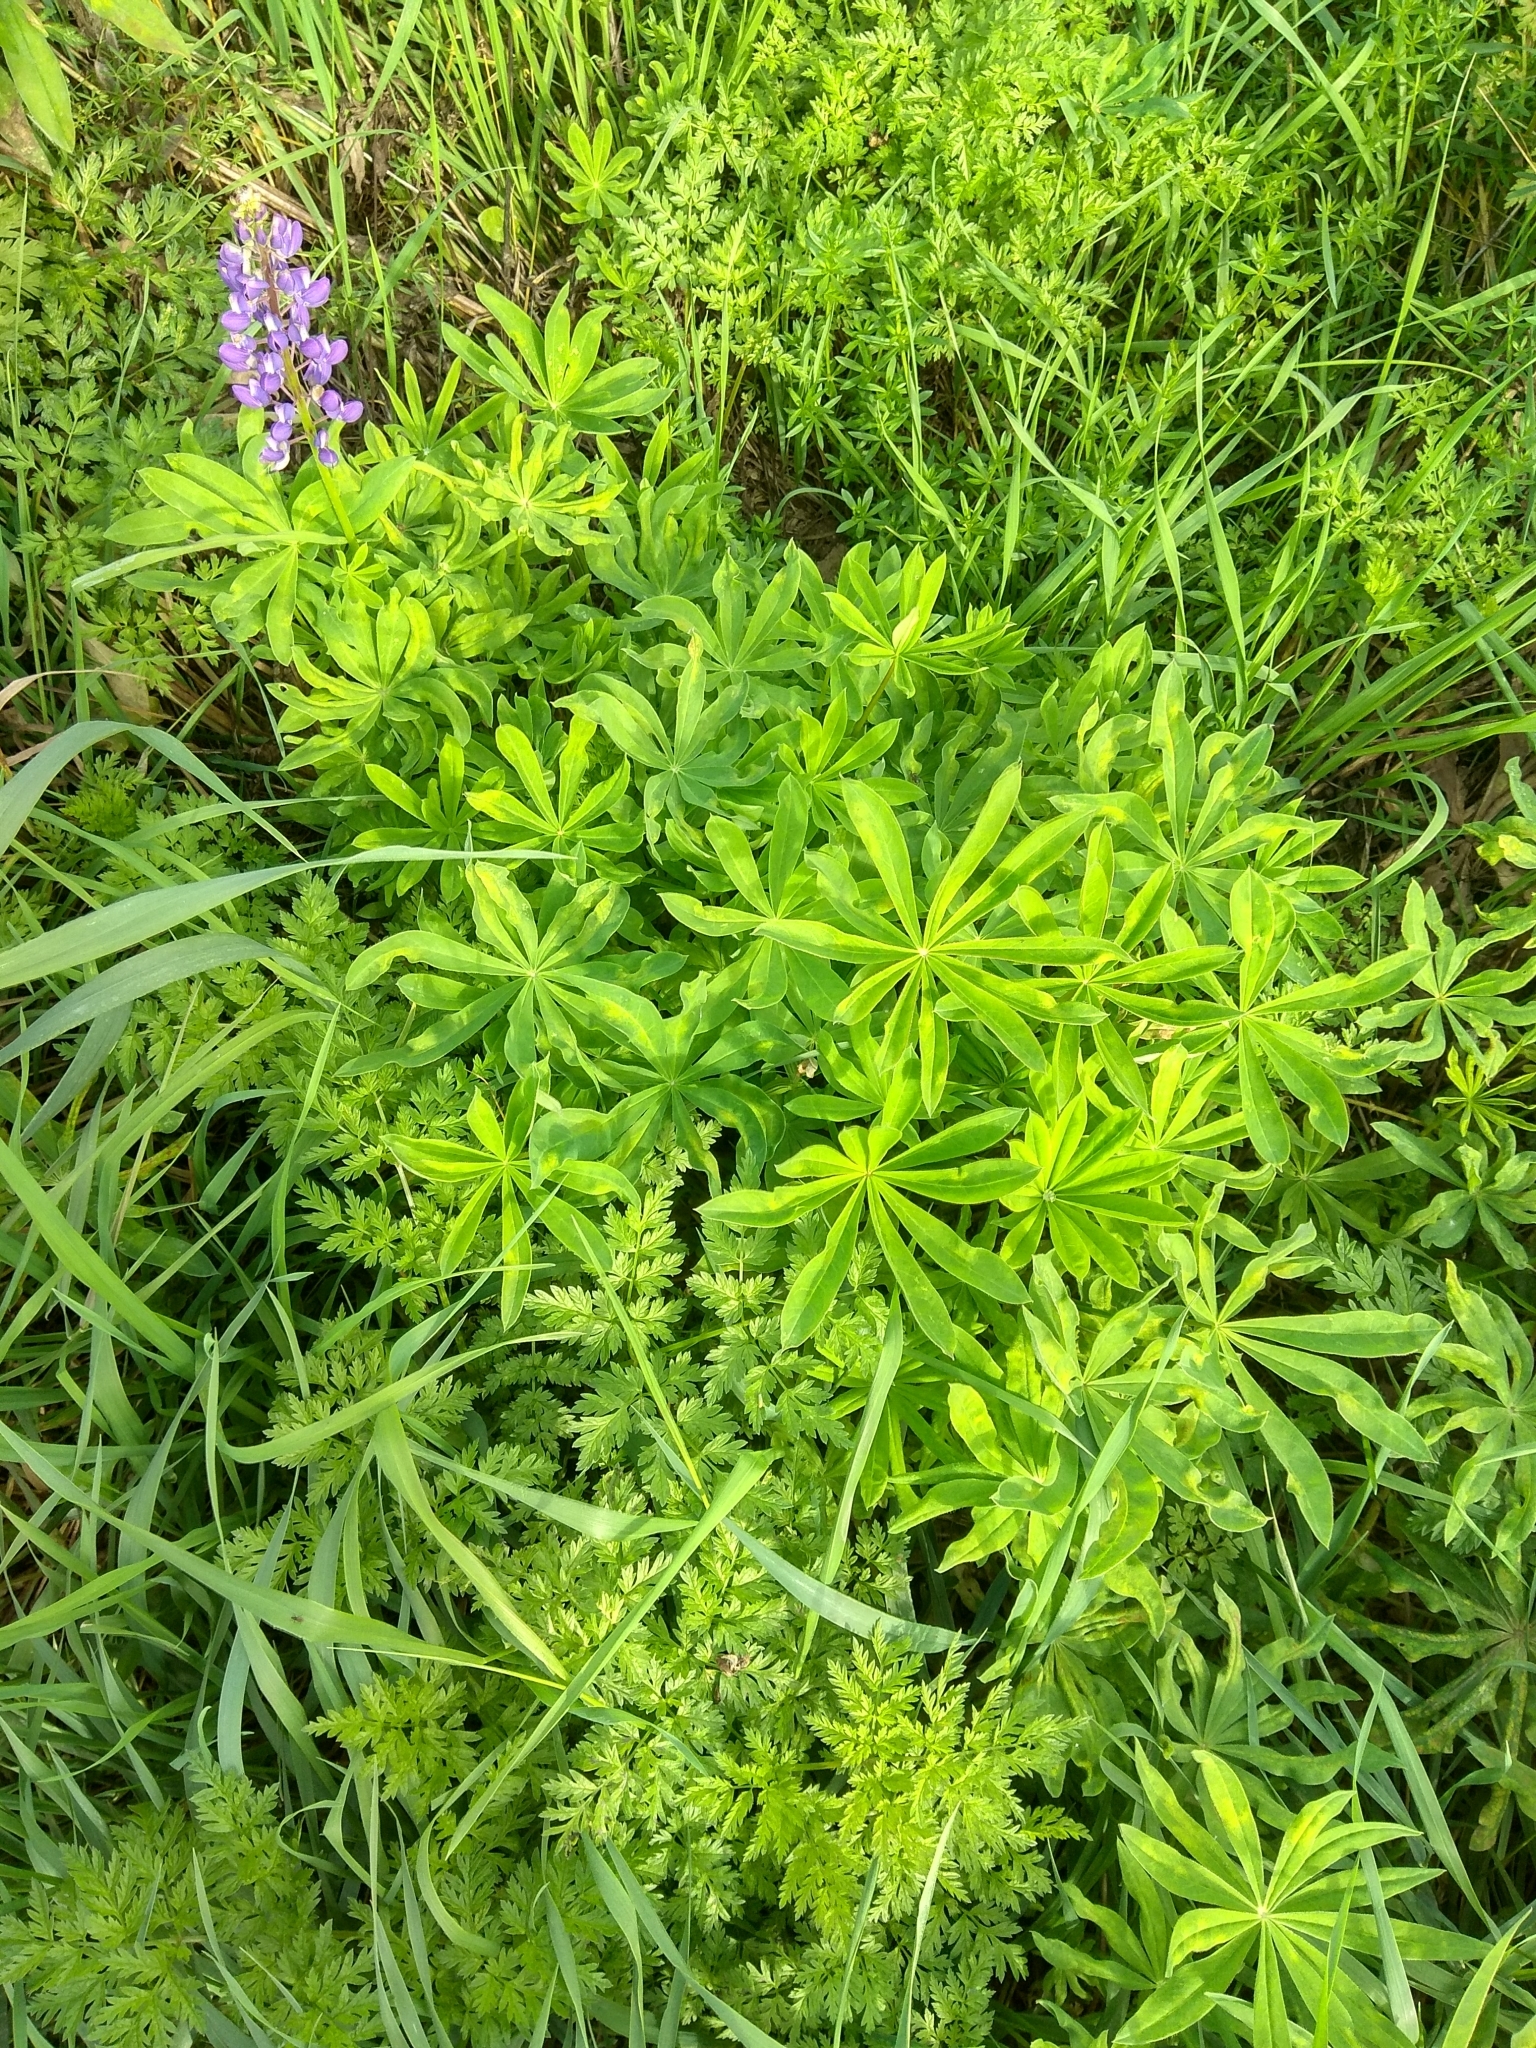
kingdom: Plantae
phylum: Tracheophyta
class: Magnoliopsida
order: Fabales
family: Fabaceae
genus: Lupinus
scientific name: Lupinus polyphyllus
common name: Garden lupin
